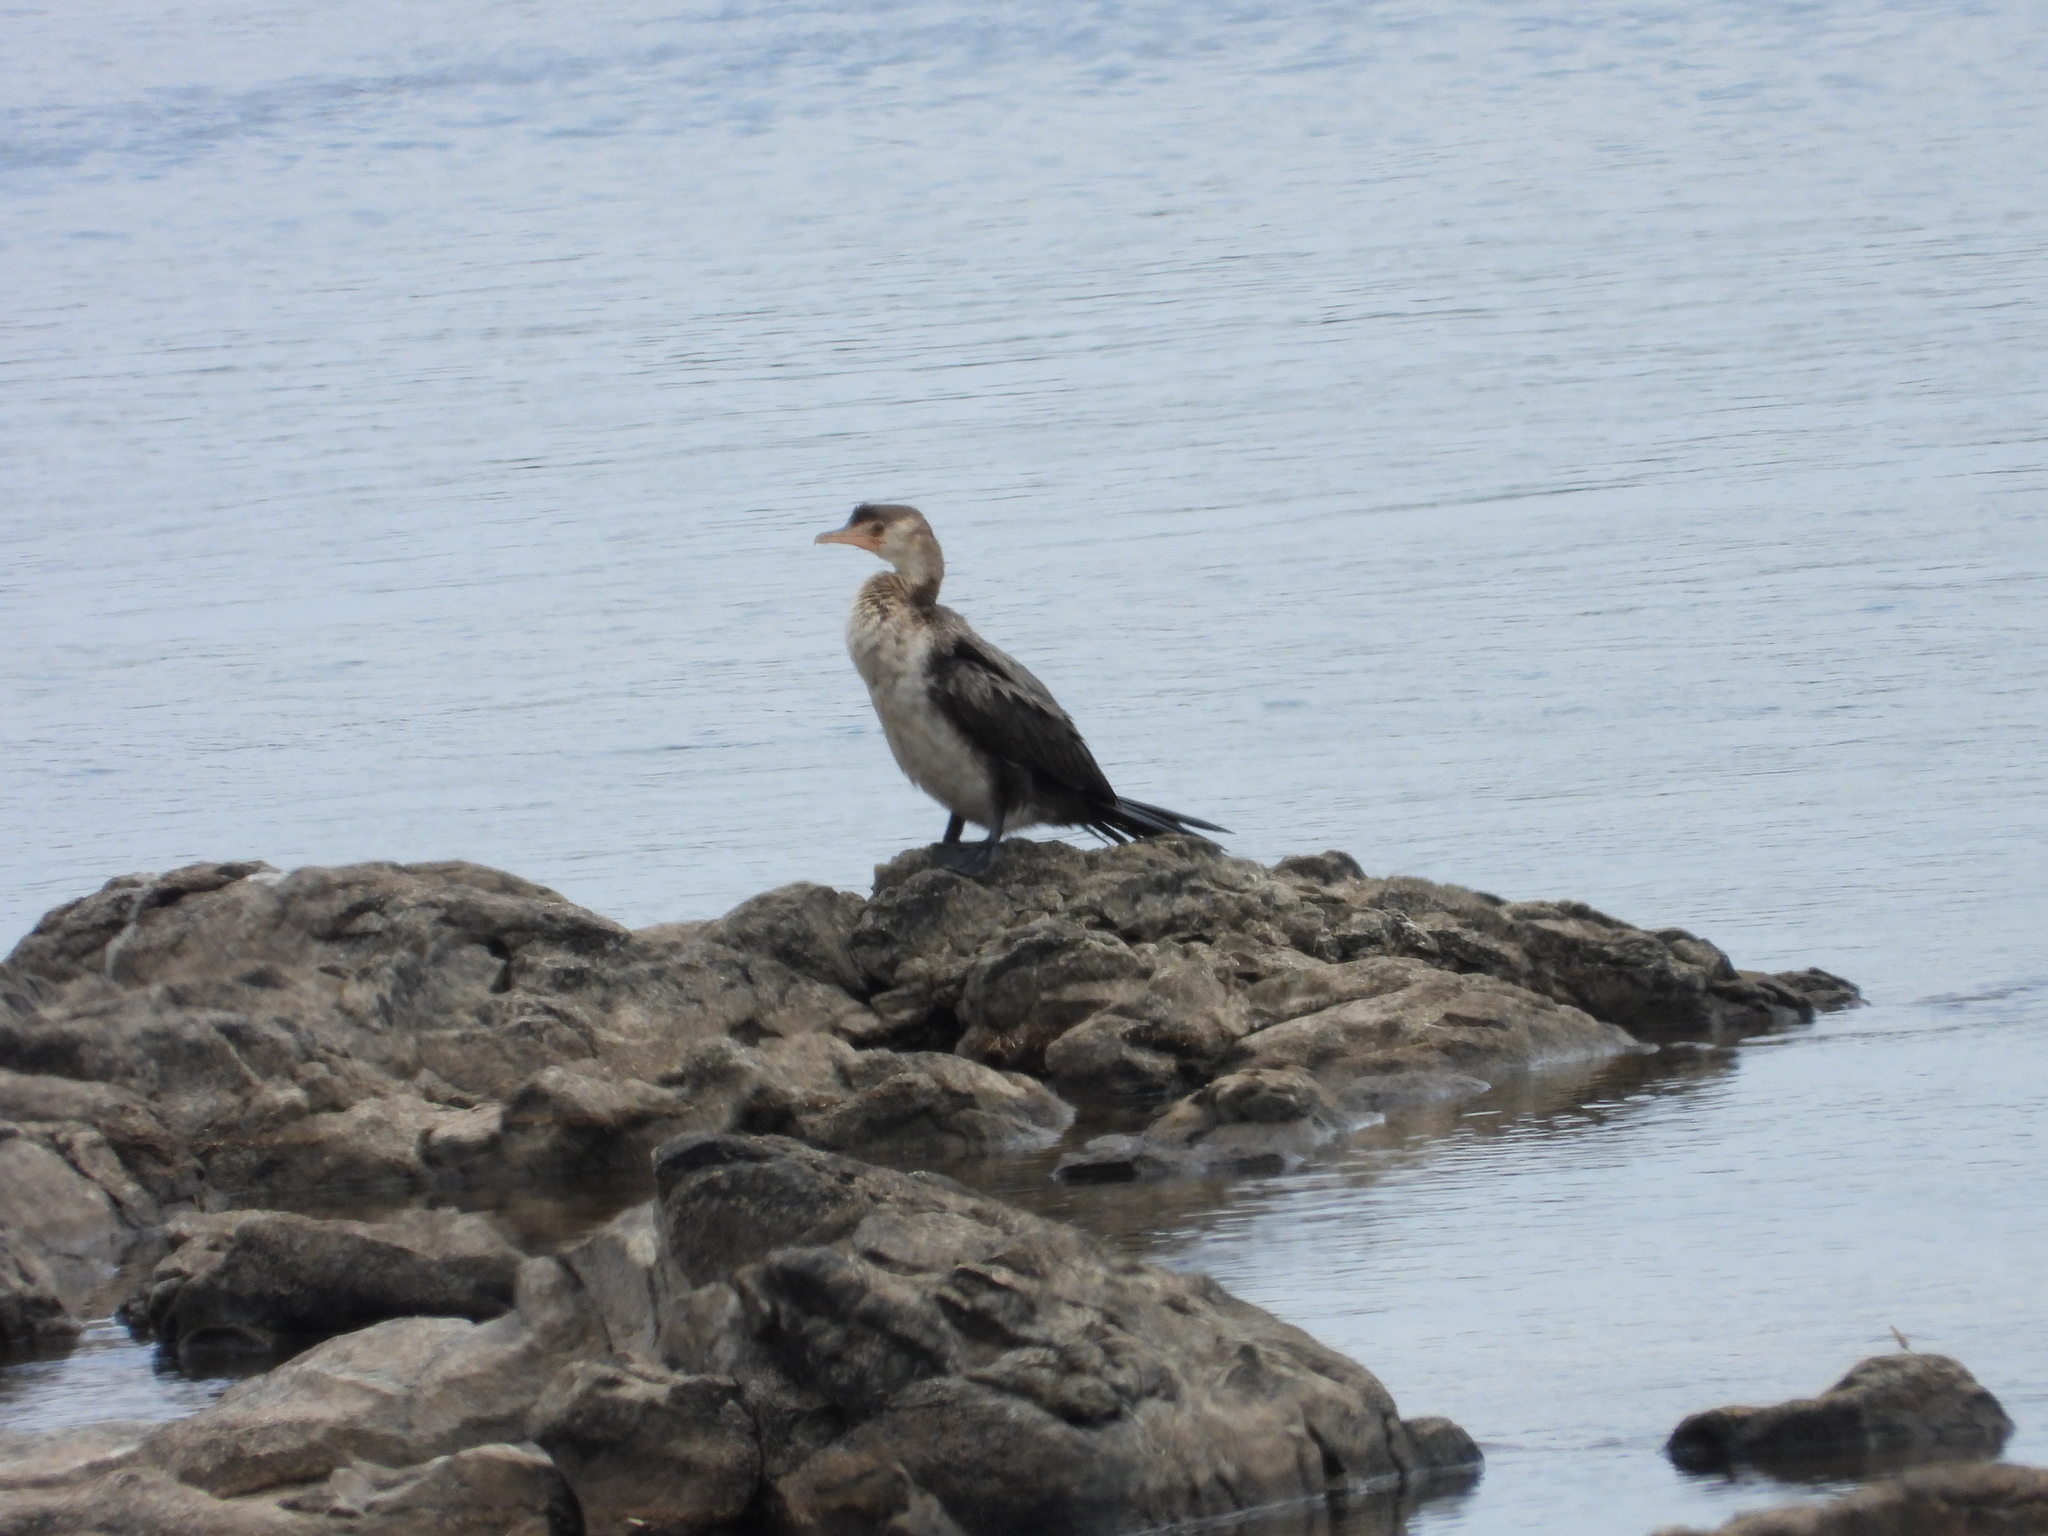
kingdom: Animalia
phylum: Chordata
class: Aves
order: Suliformes
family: Phalacrocoracidae
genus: Microcarbo
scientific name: Microcarbo africanus
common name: Long-tailed cormorant
